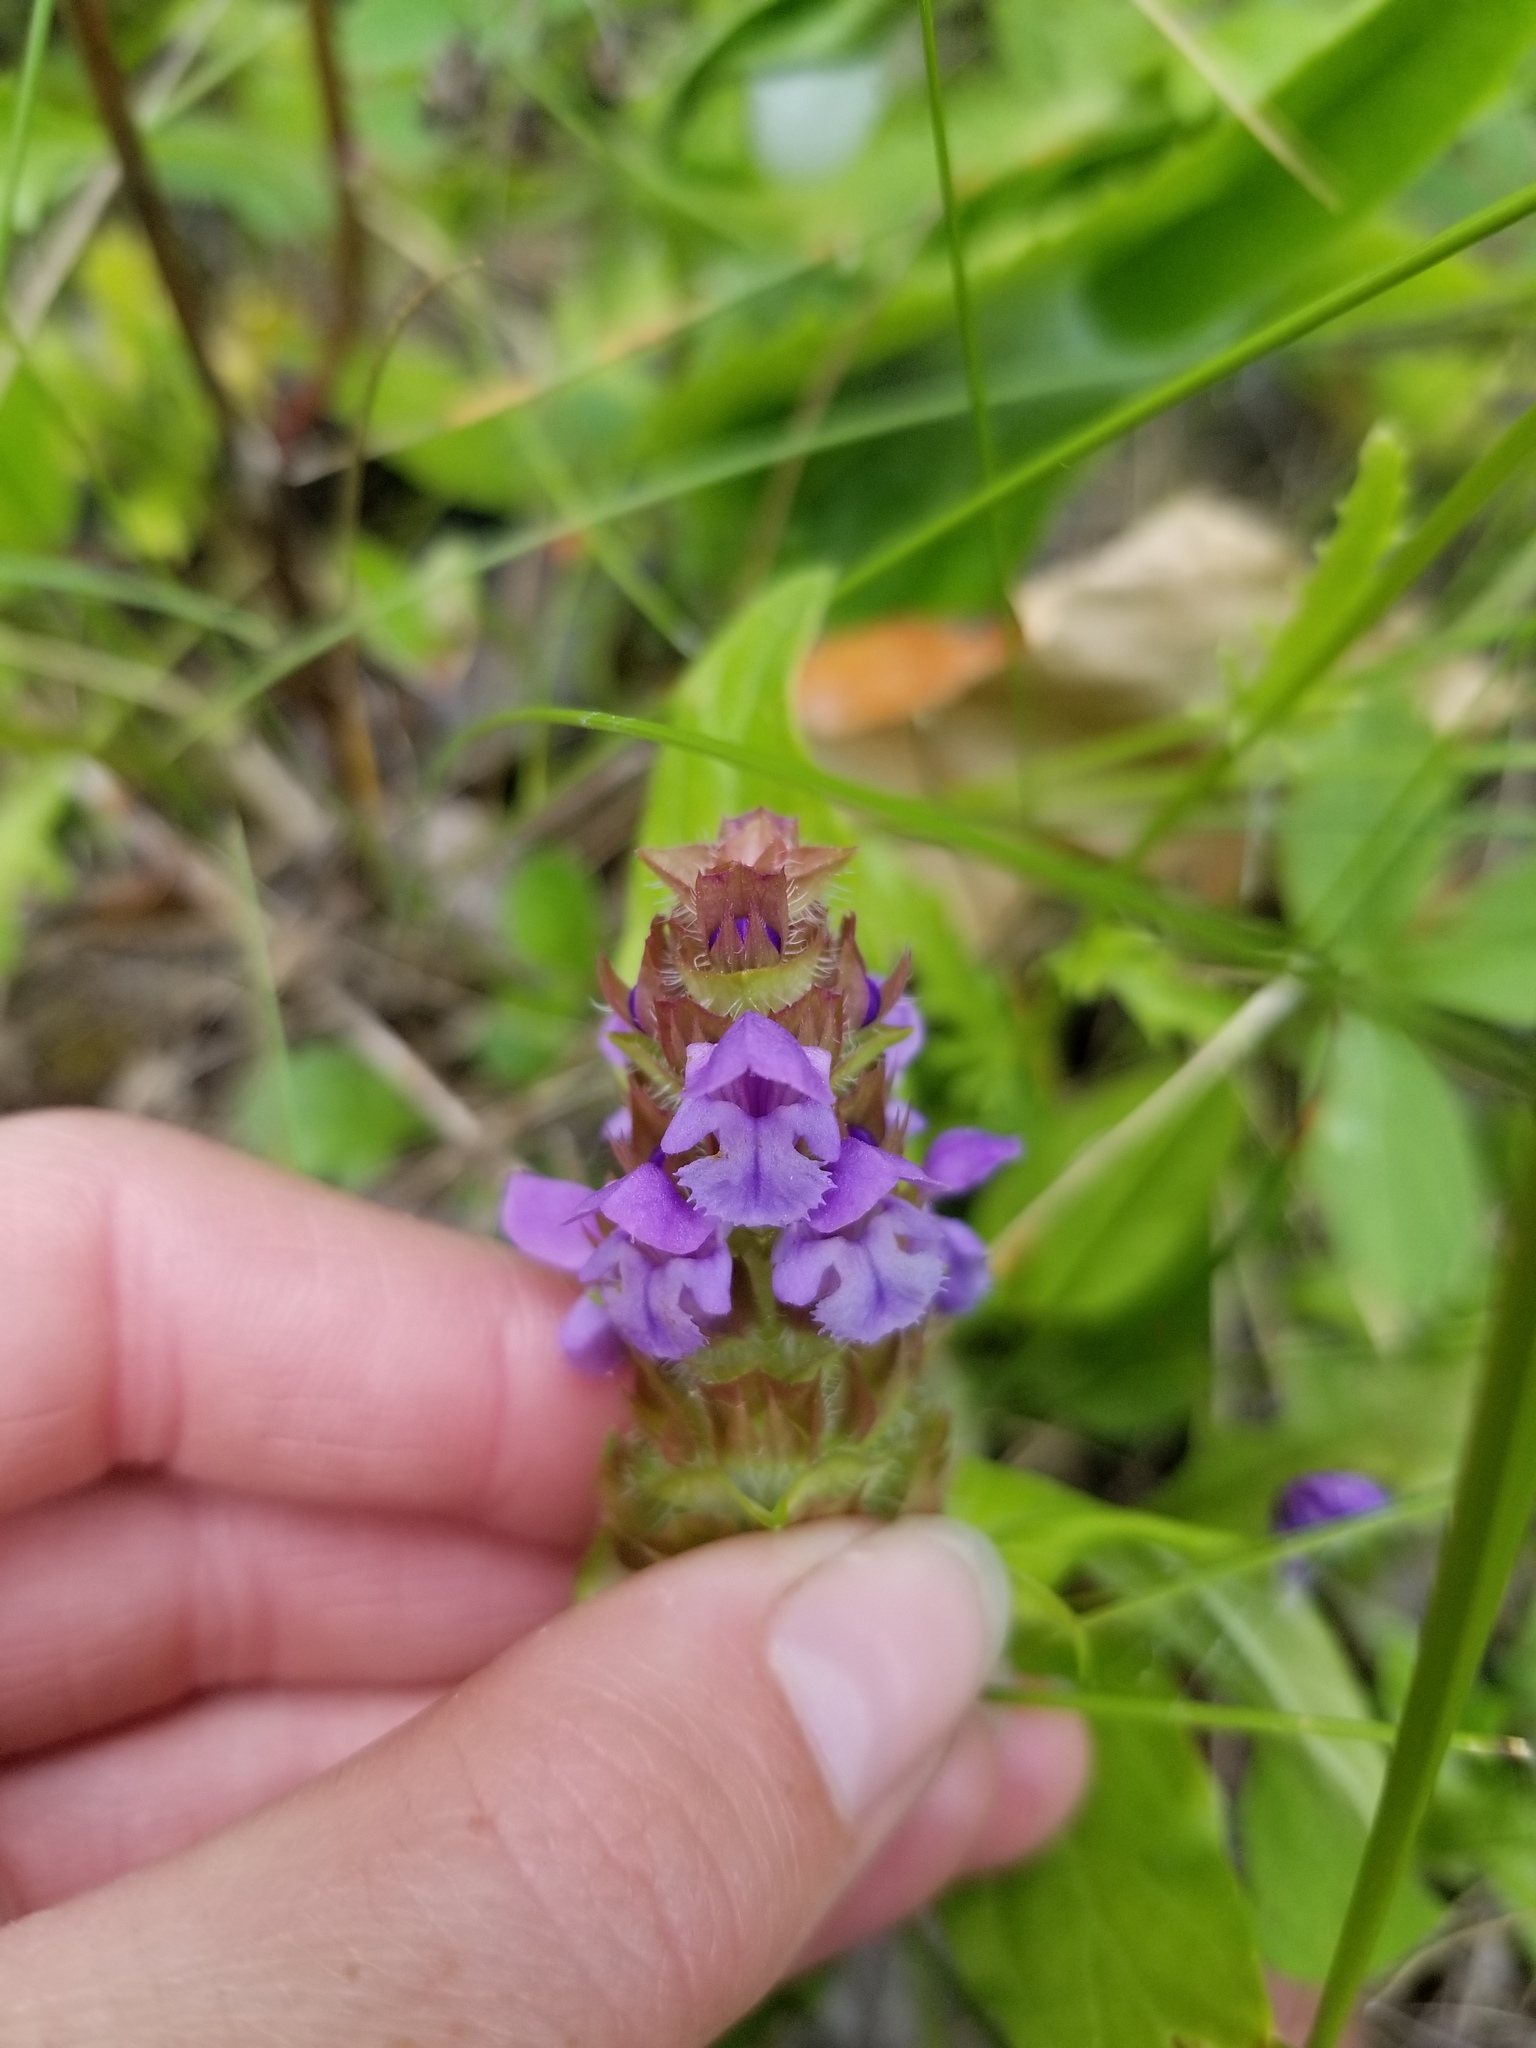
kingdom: Plantae
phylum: Tracheophyta
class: Magnoliopsida
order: Lamiales
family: Lamiaceae
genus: Prunella
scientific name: Prunella vulgaris
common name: Heal-all
